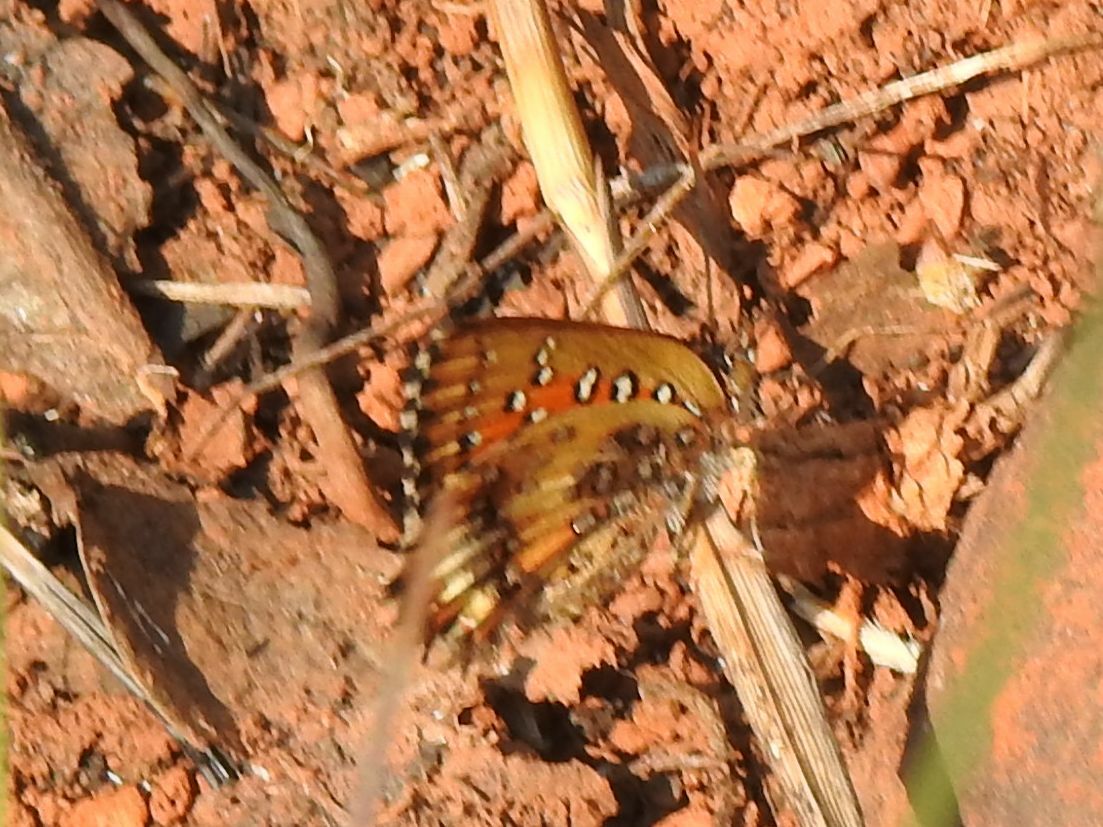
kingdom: Animalia
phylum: Arthropoda
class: Insecta
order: Lepidoptera
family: Lycaenidae
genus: Aloeides
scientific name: Aloeides molomo
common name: Mottled russet
